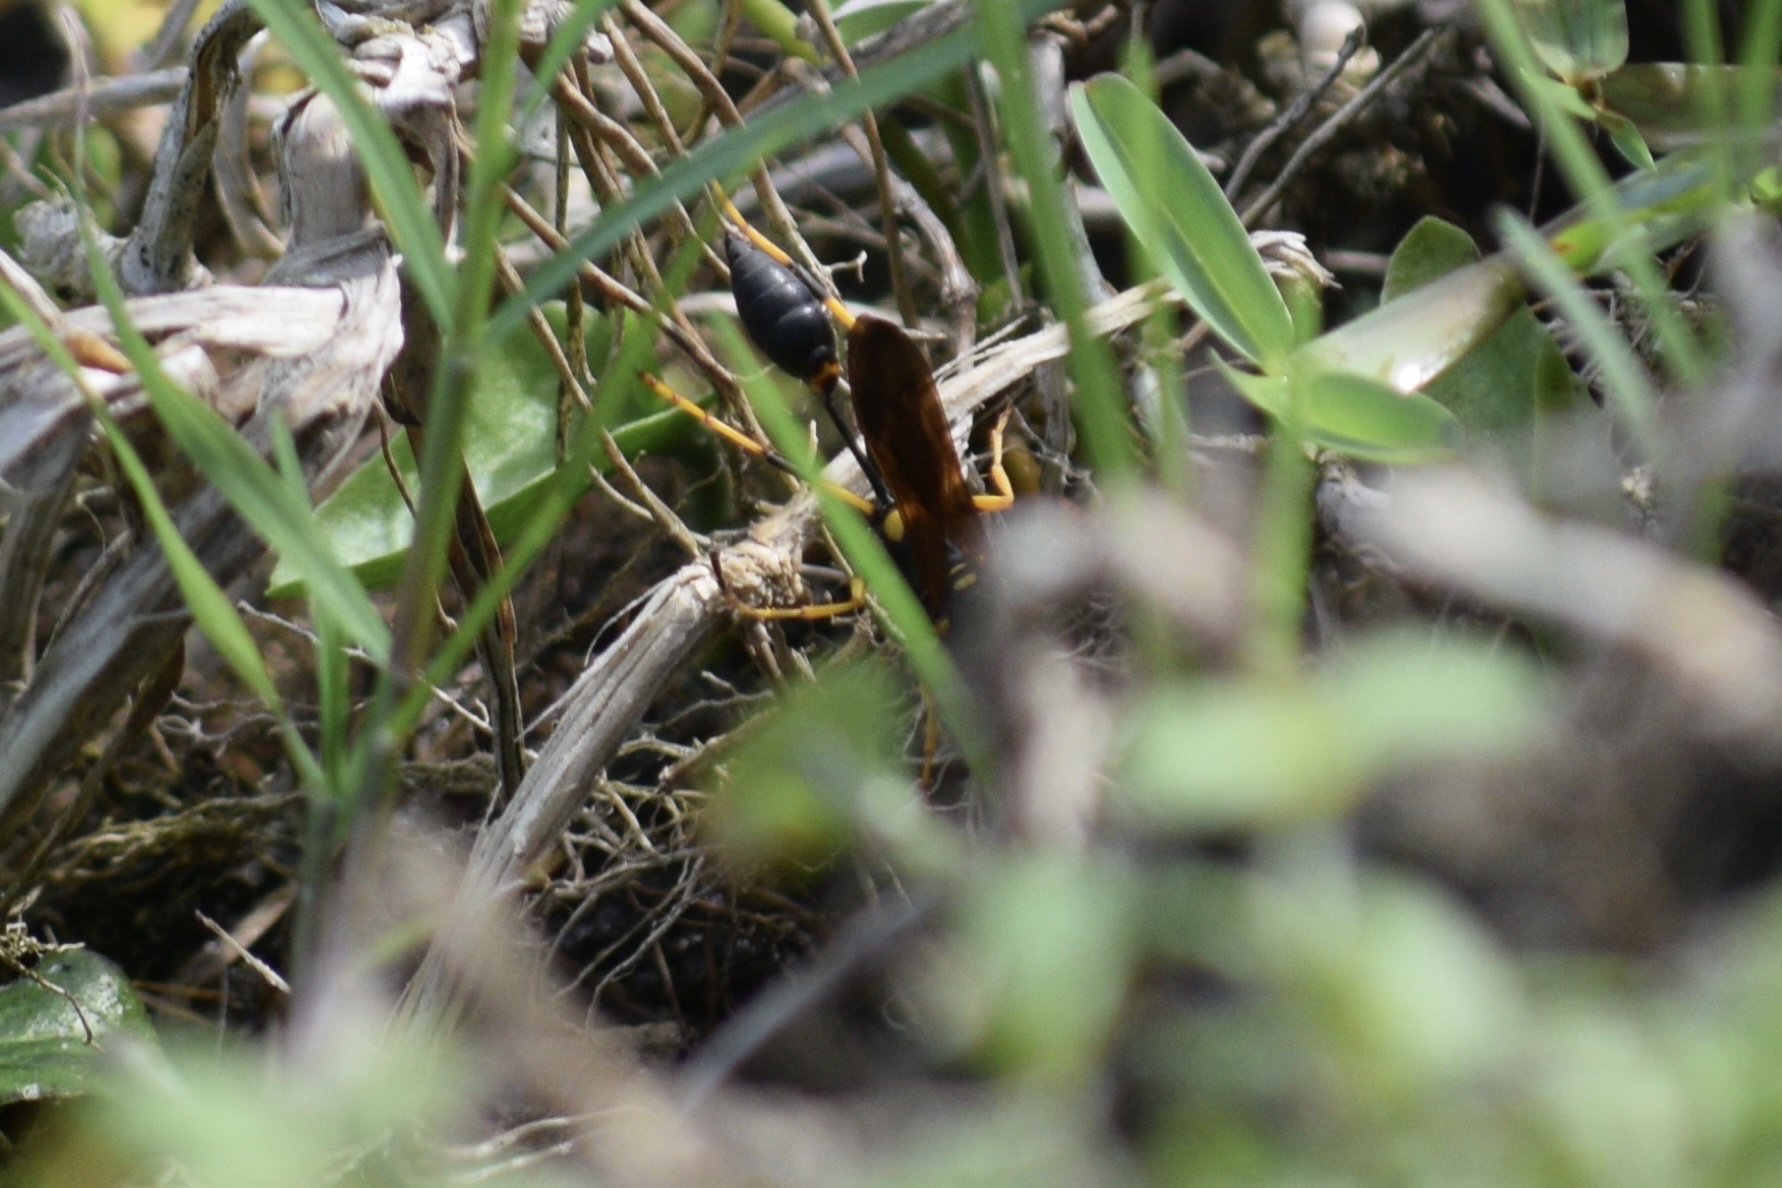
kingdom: Animalia
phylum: Arthropoda
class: Insecta
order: Hymenoptera
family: Sphecidae
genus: Sceliphron
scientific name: Sceliphron caementarium
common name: Mud dauber
